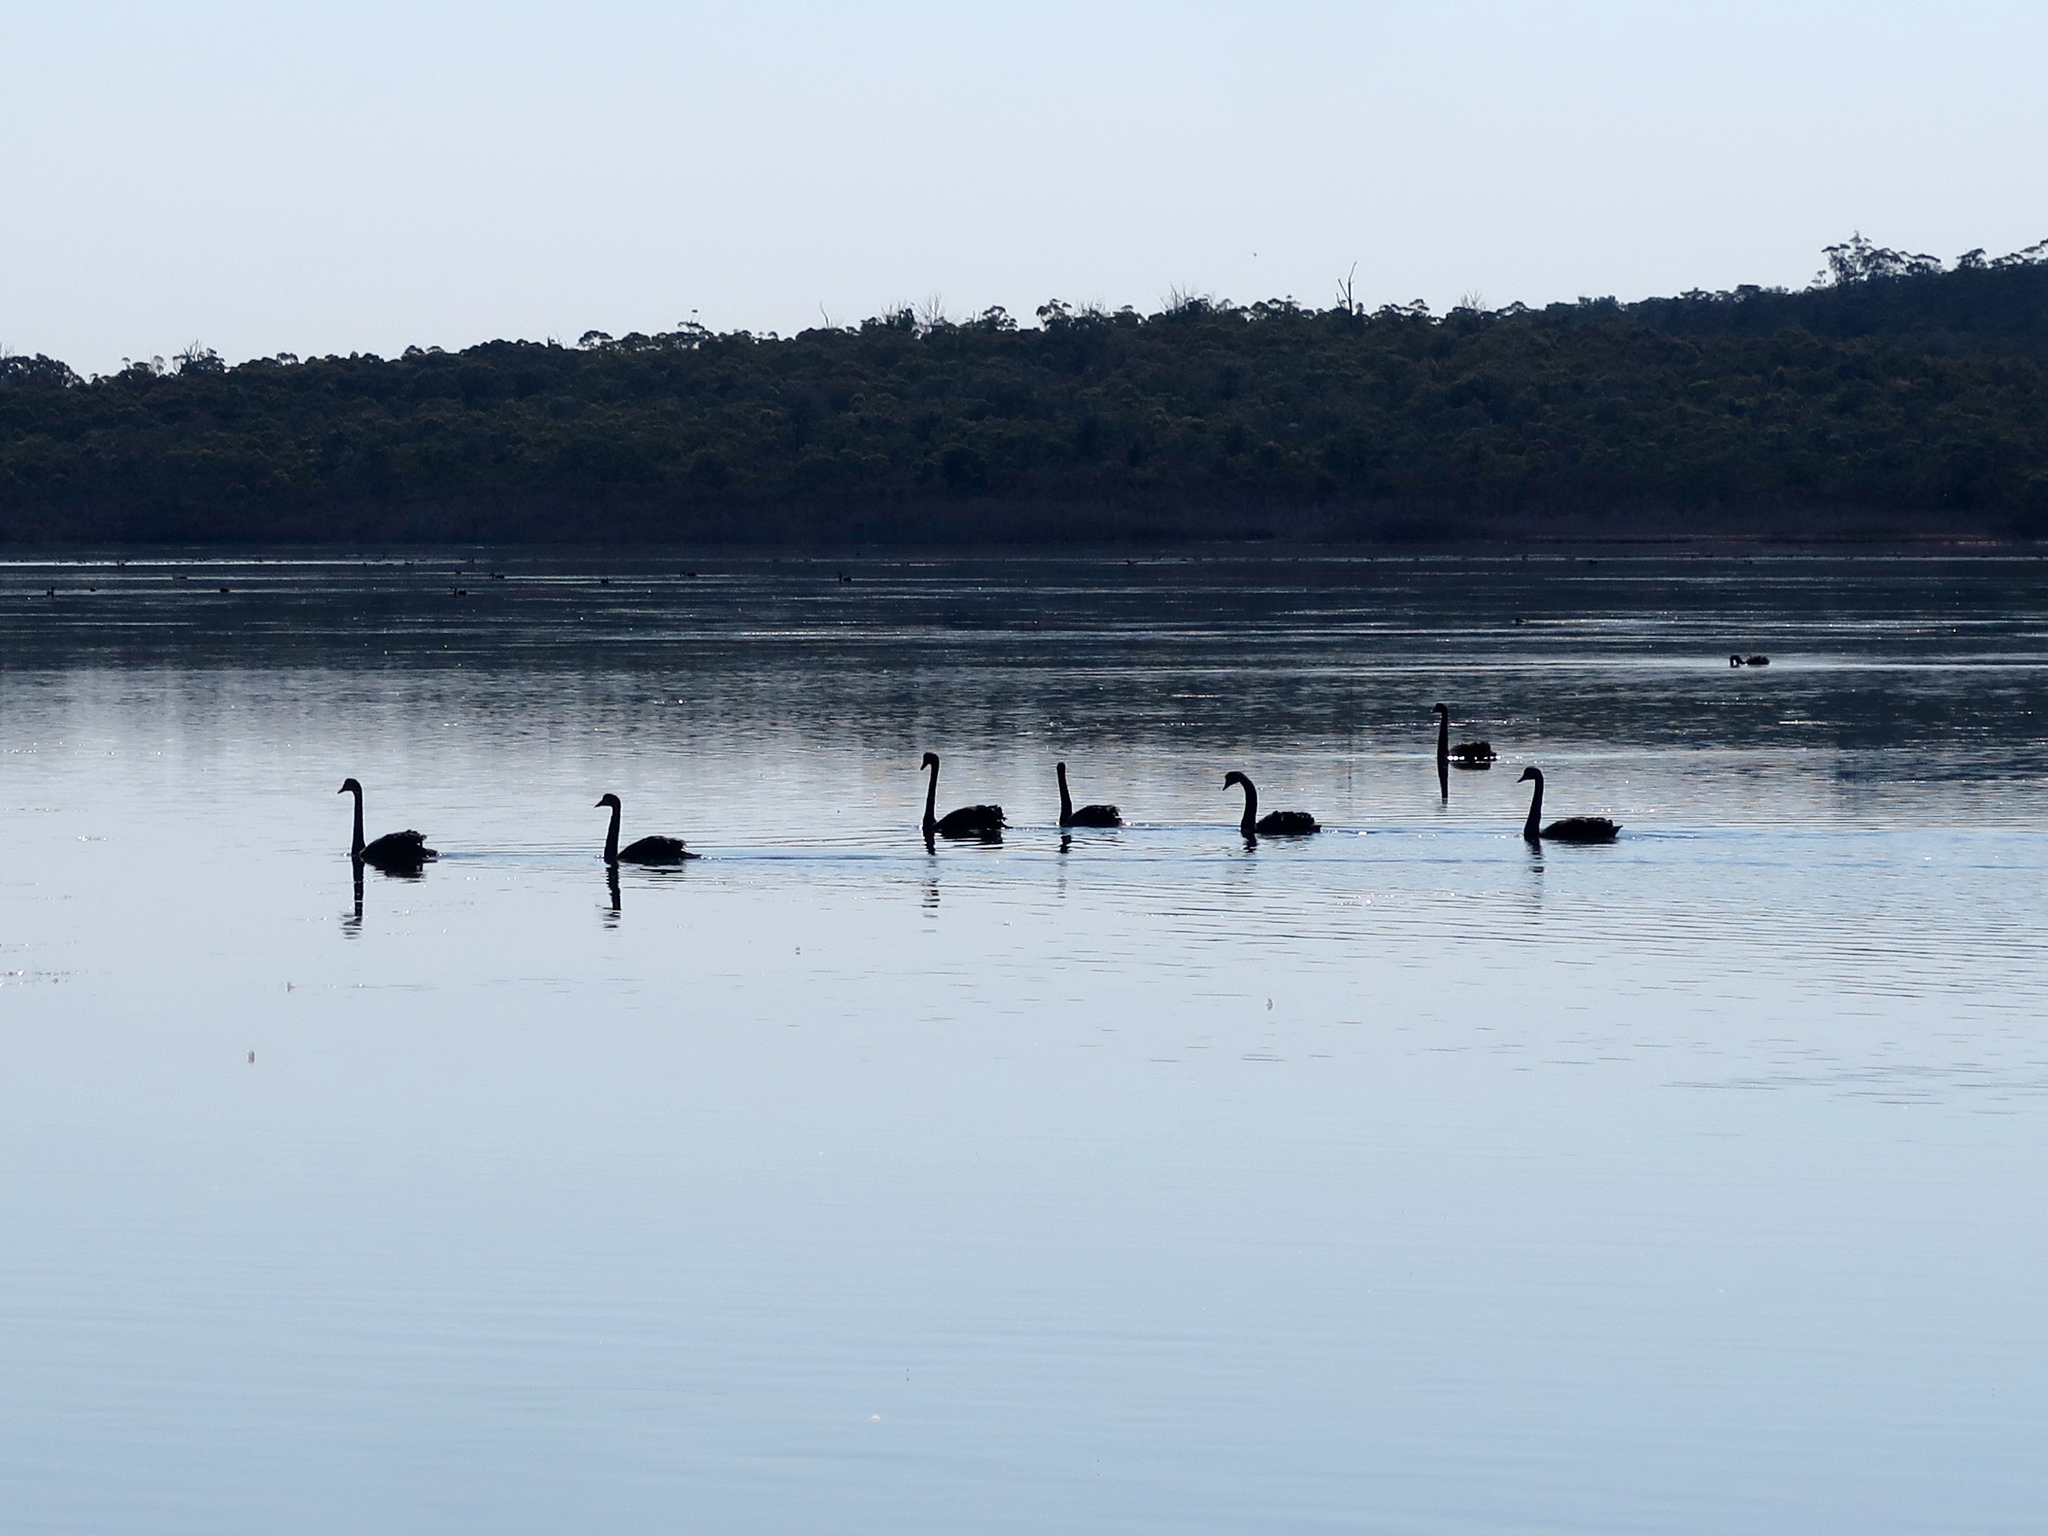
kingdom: Animalia
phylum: Chordata
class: Aves
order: Anseriformes
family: Anatidae
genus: Cygnus
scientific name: Cygnus atratus
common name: Black swan
